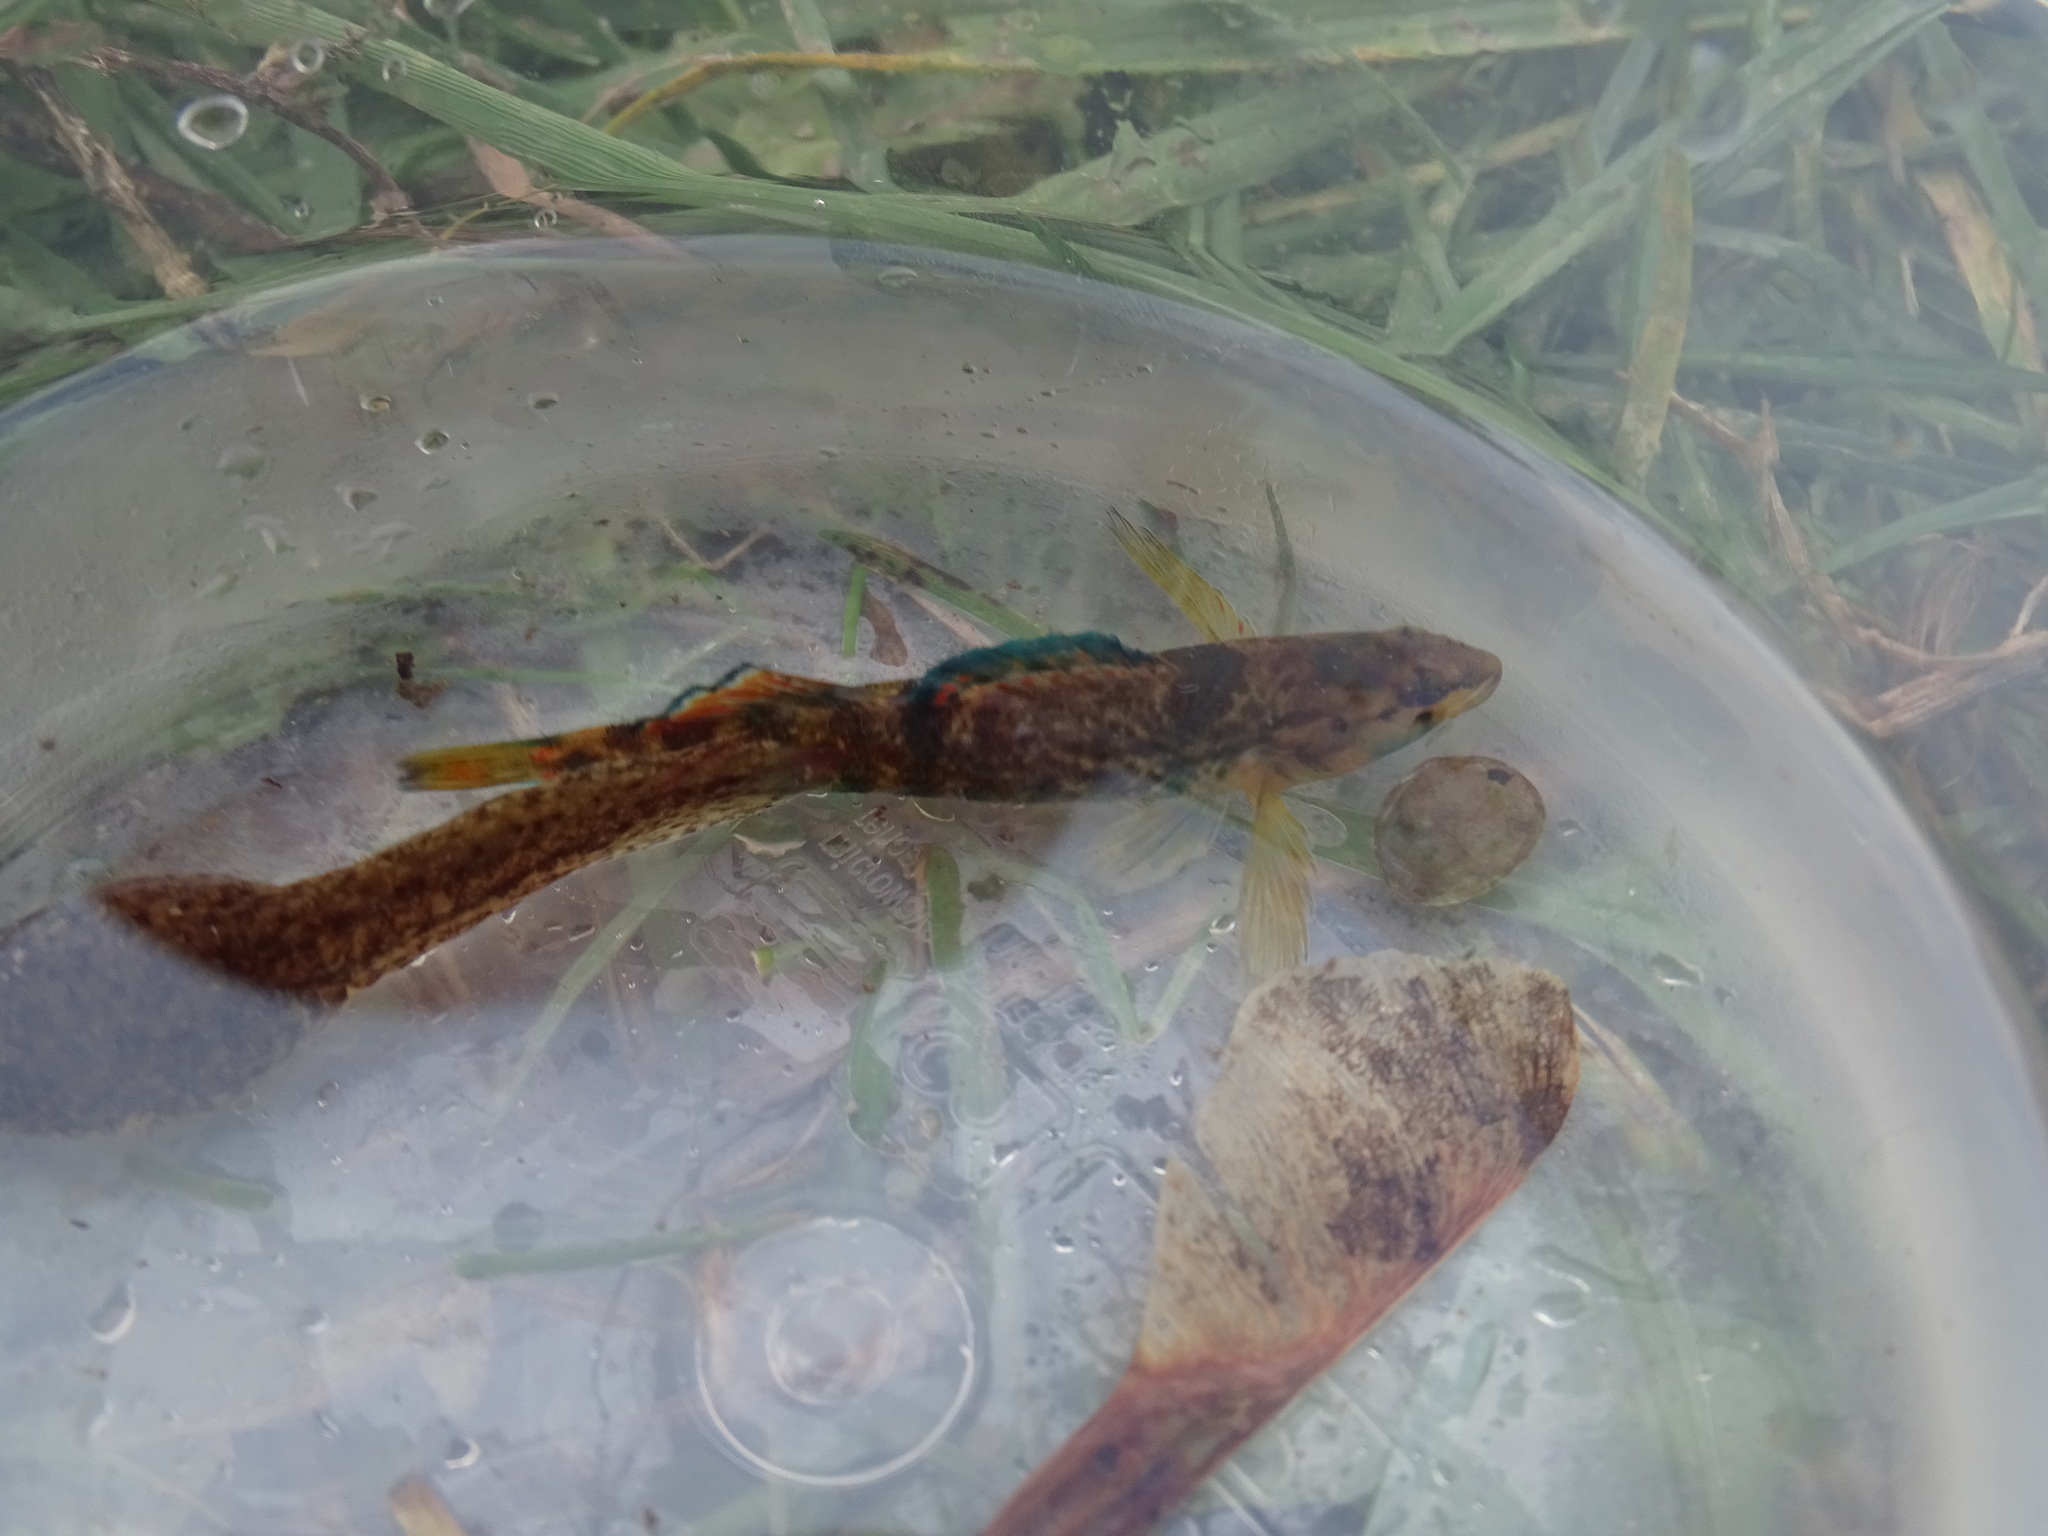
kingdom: Animalia
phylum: Chordata
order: Perciformes
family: Percidae
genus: Etheostoma
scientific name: Etheostoma caeruleum
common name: Rainbow darter
